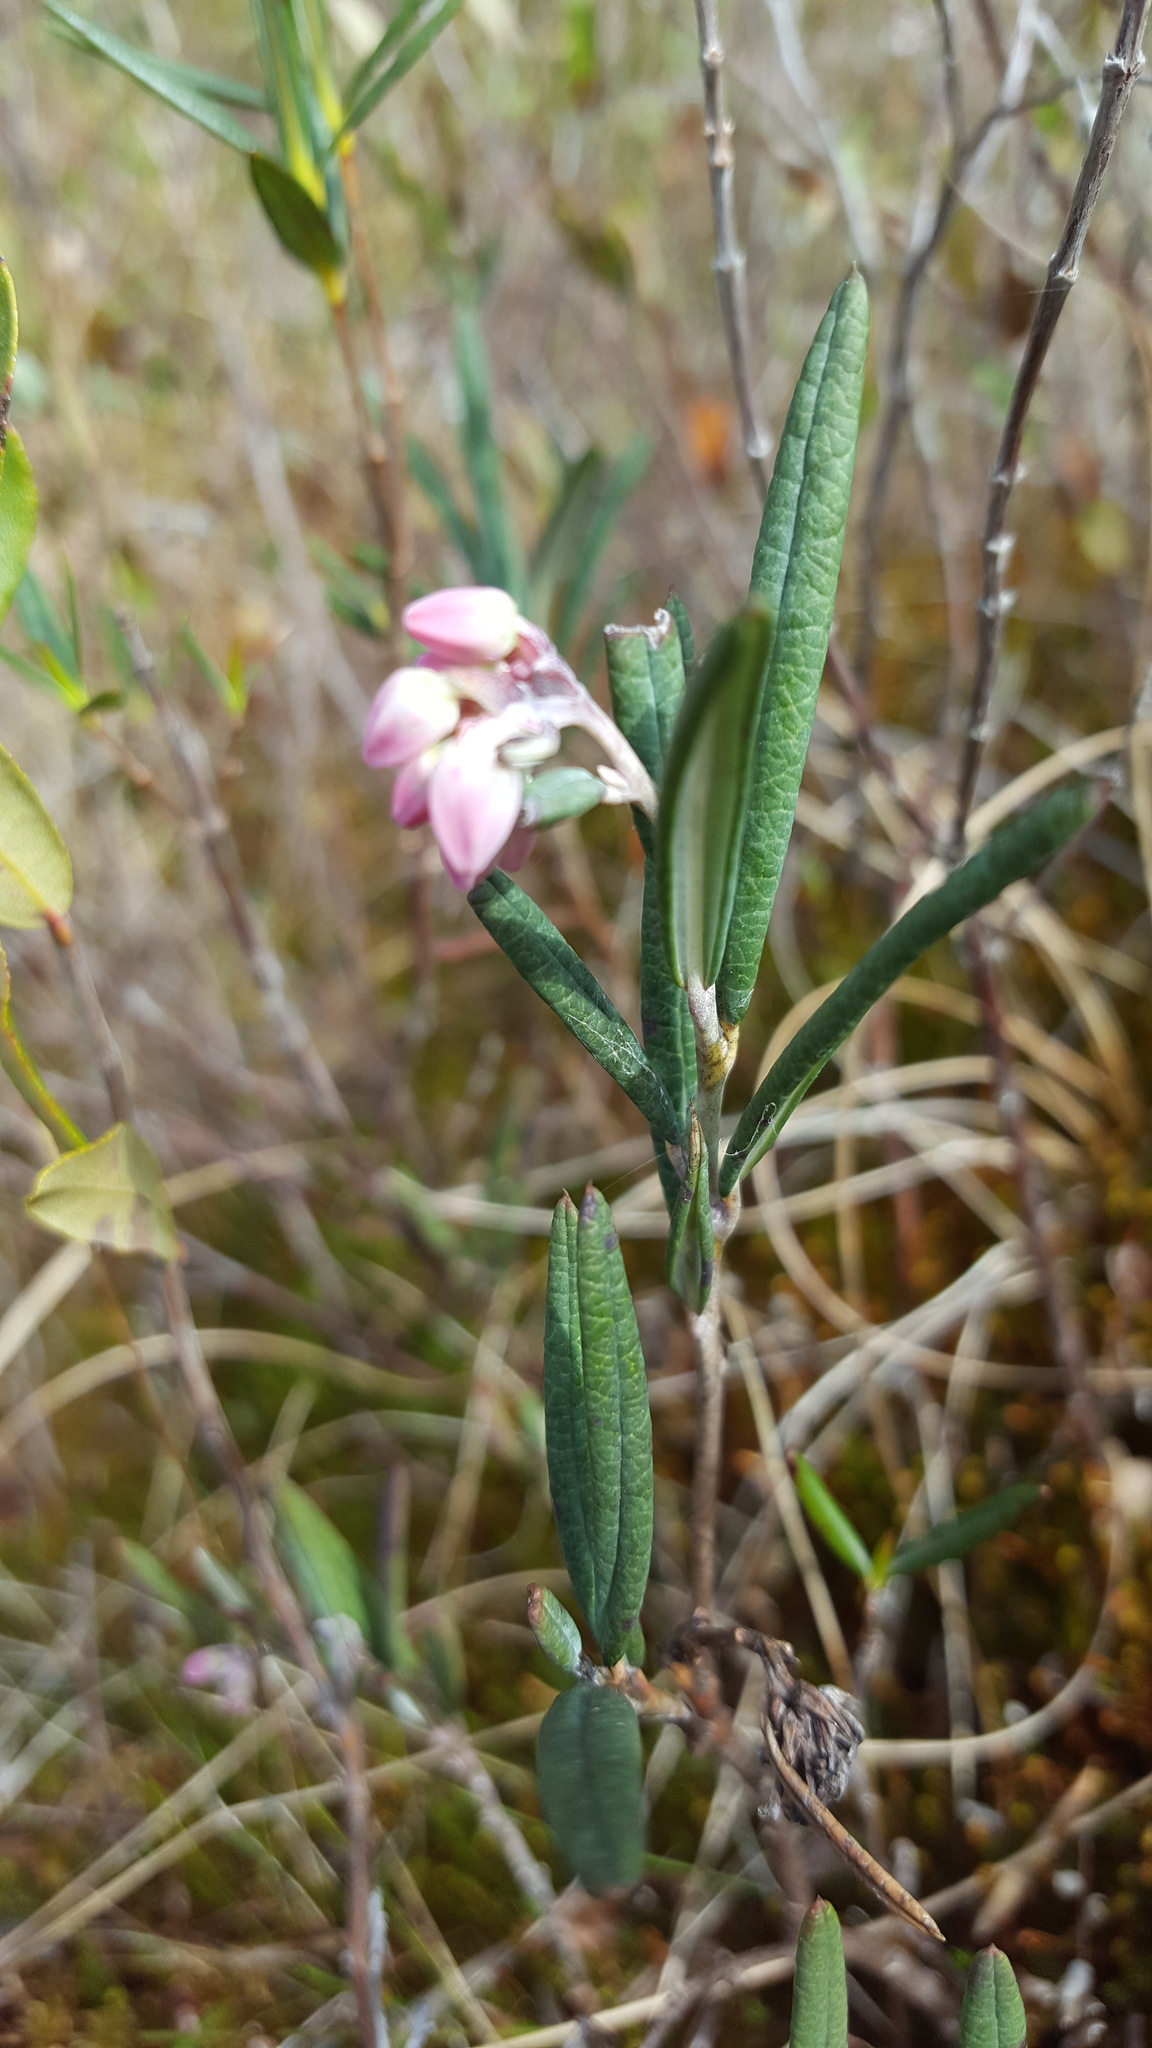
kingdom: Plantae
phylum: Tracheophyta
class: Magnoliopsida
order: Ericales
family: Ericaceae
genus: Andromeda
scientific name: Andromeda polifolia
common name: Bog-rosemary
